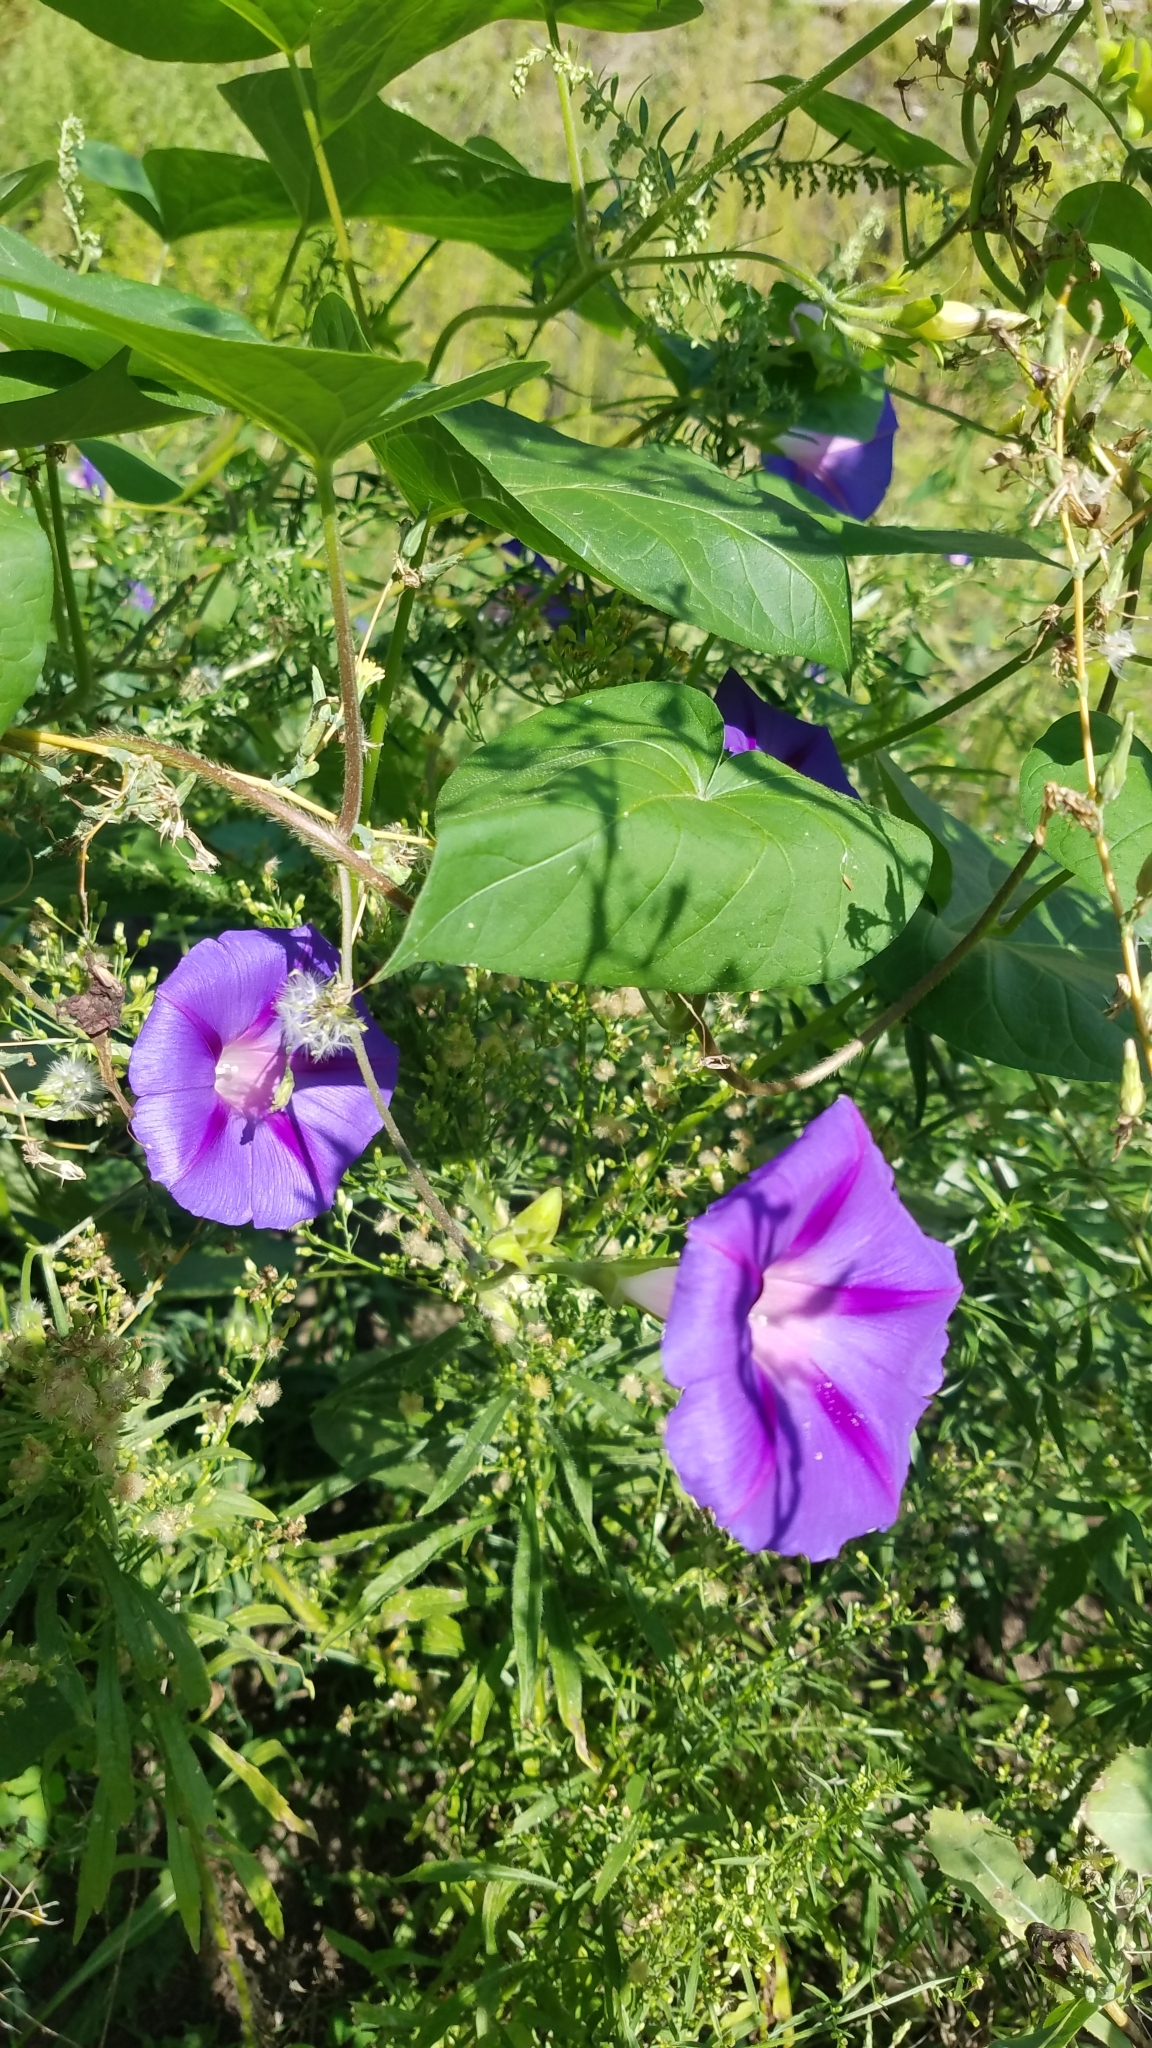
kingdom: Plantae
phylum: Tracheophyta
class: Magnoliopsida
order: Solanales
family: Convolvulaceae
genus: Ipomoea
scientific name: Ipomoea purpurea
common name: Common morning-glory
